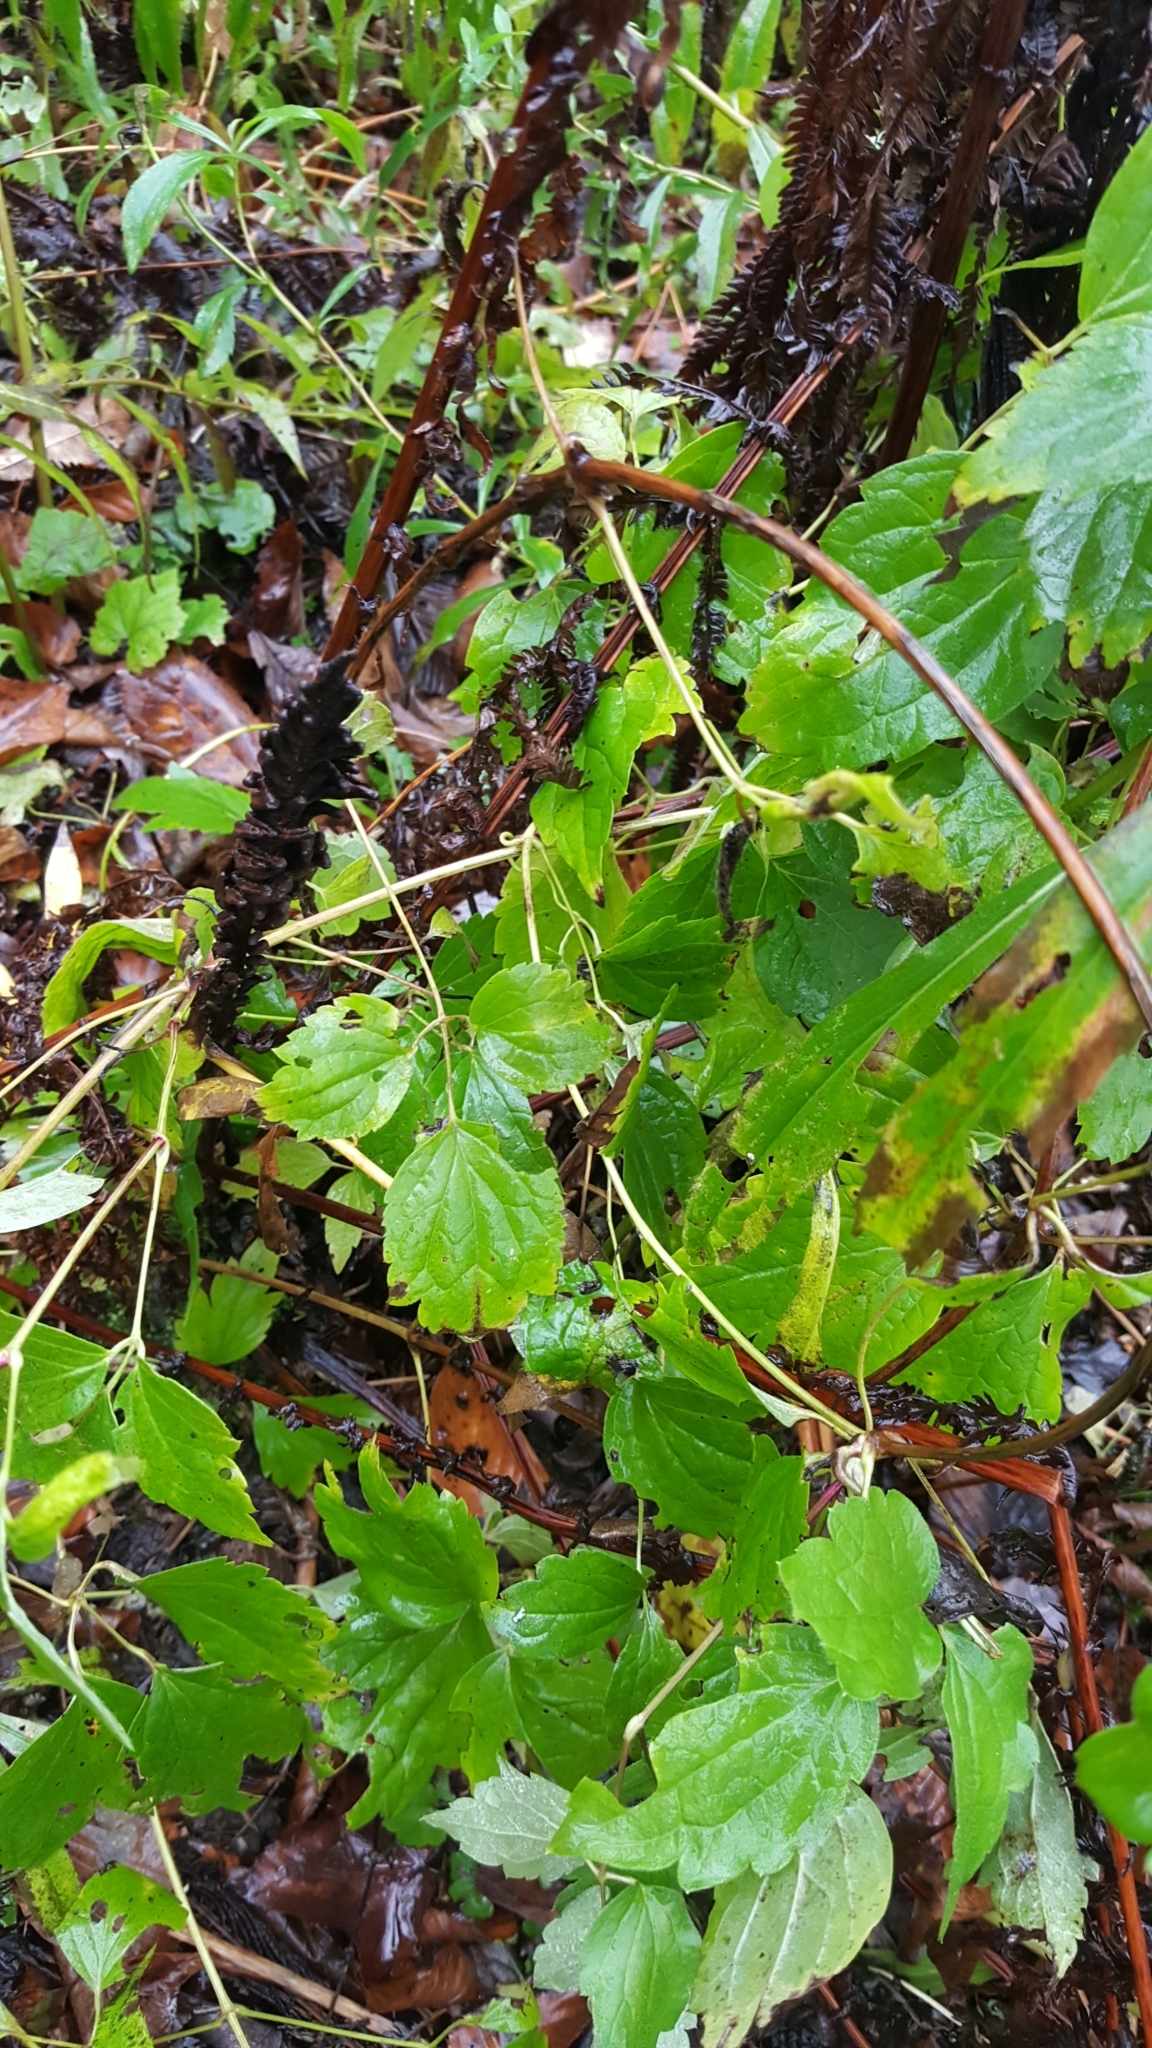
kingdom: Plantae
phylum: Tracheophyta
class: Magnoliopsida
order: Ranunculales
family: Ranunculaceae
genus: Clematis
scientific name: Clematis virginiana
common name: Virgin's-bower
